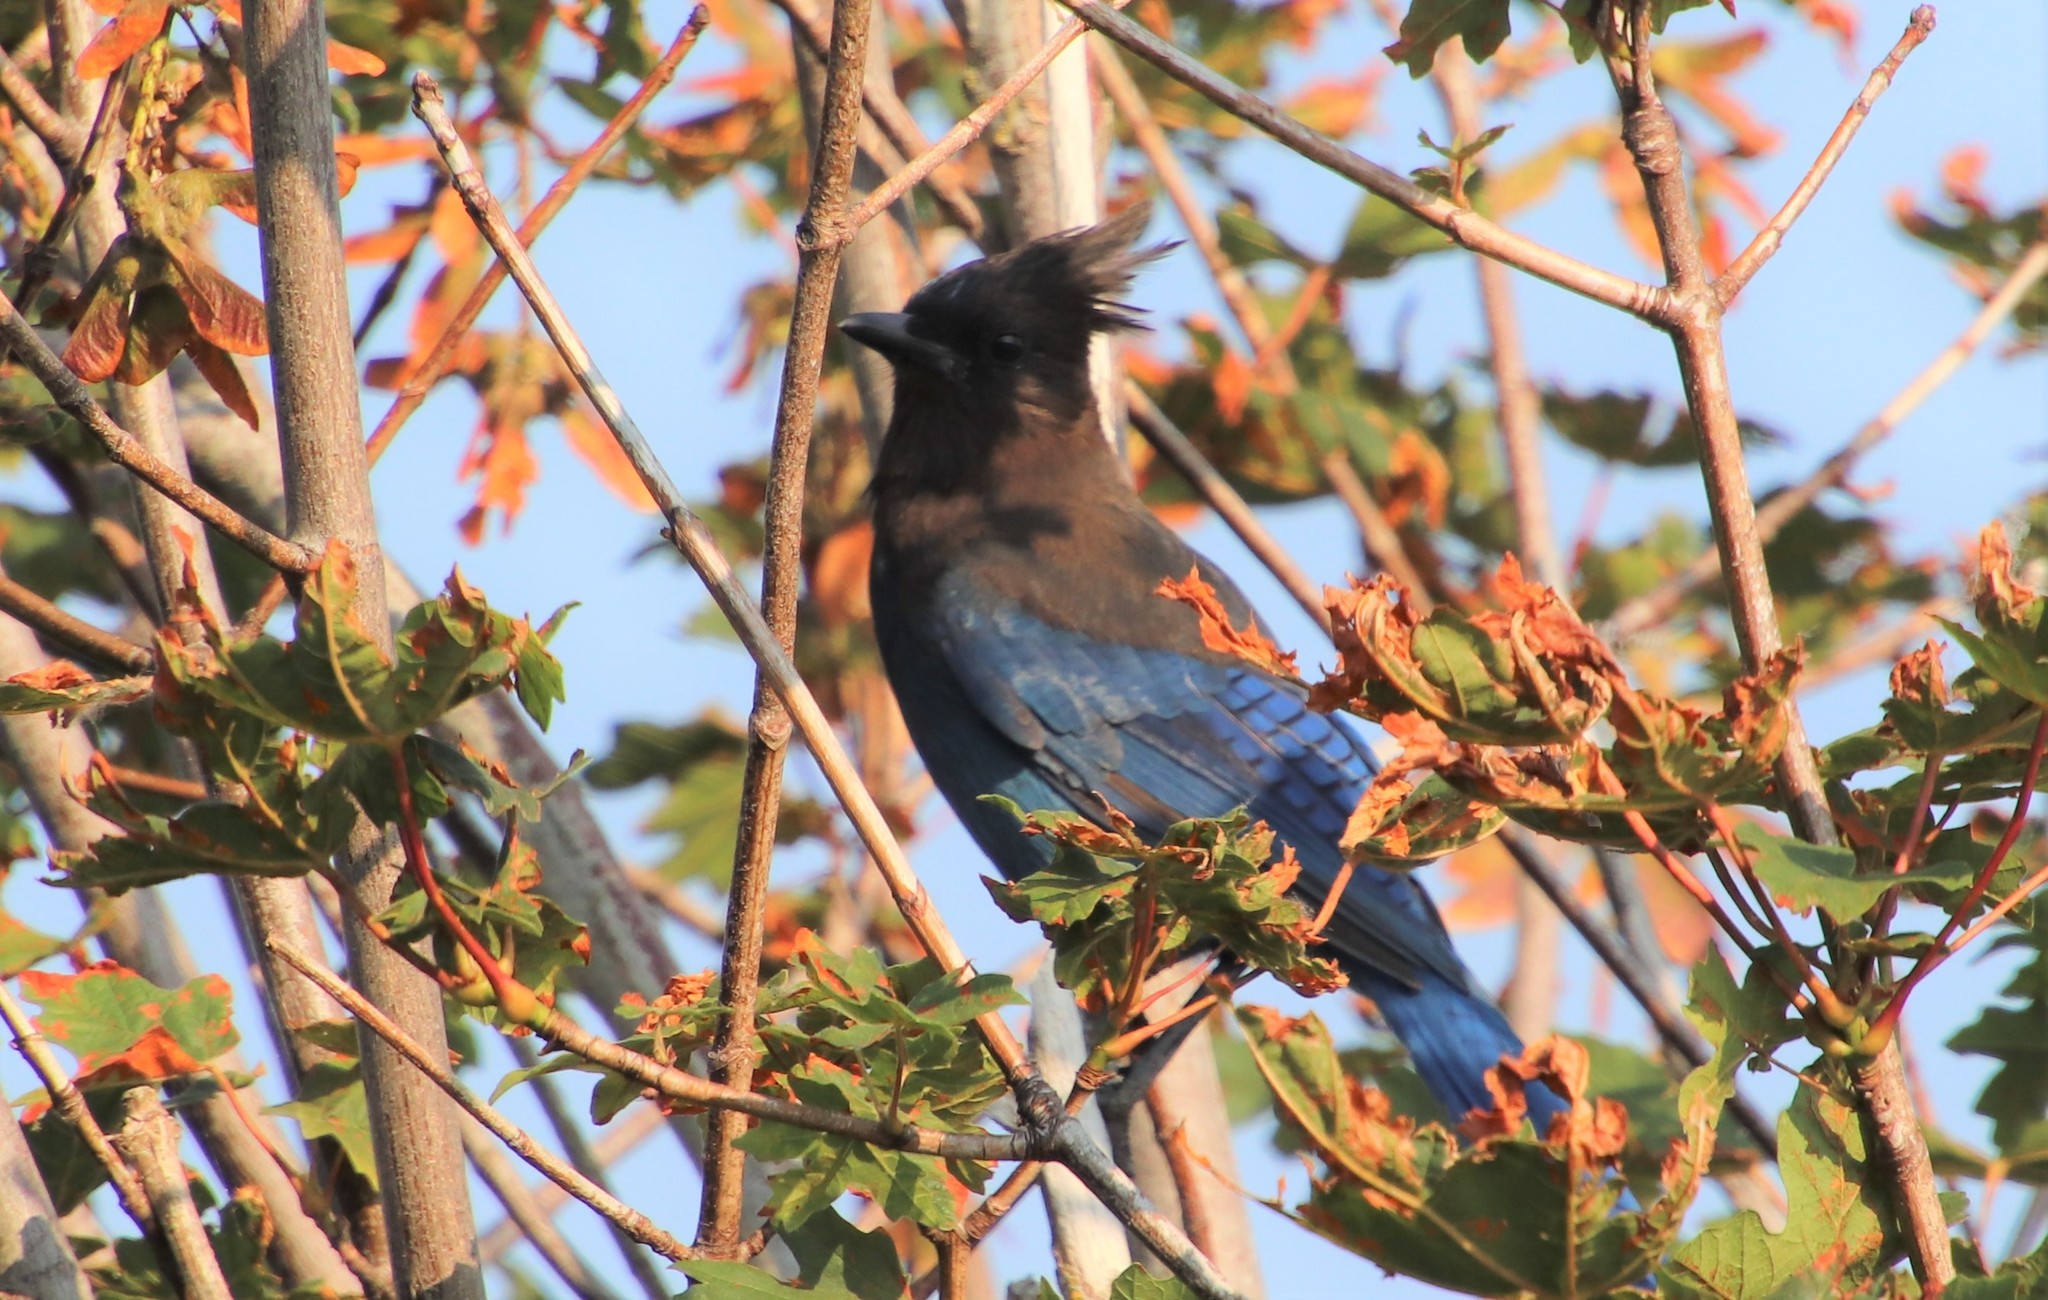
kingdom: Animalia
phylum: Chordata
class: Aves
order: Passeriformes
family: Corvidae
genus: Cyanocitta
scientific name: Cyanocitta stelleri
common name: Steller's jay
